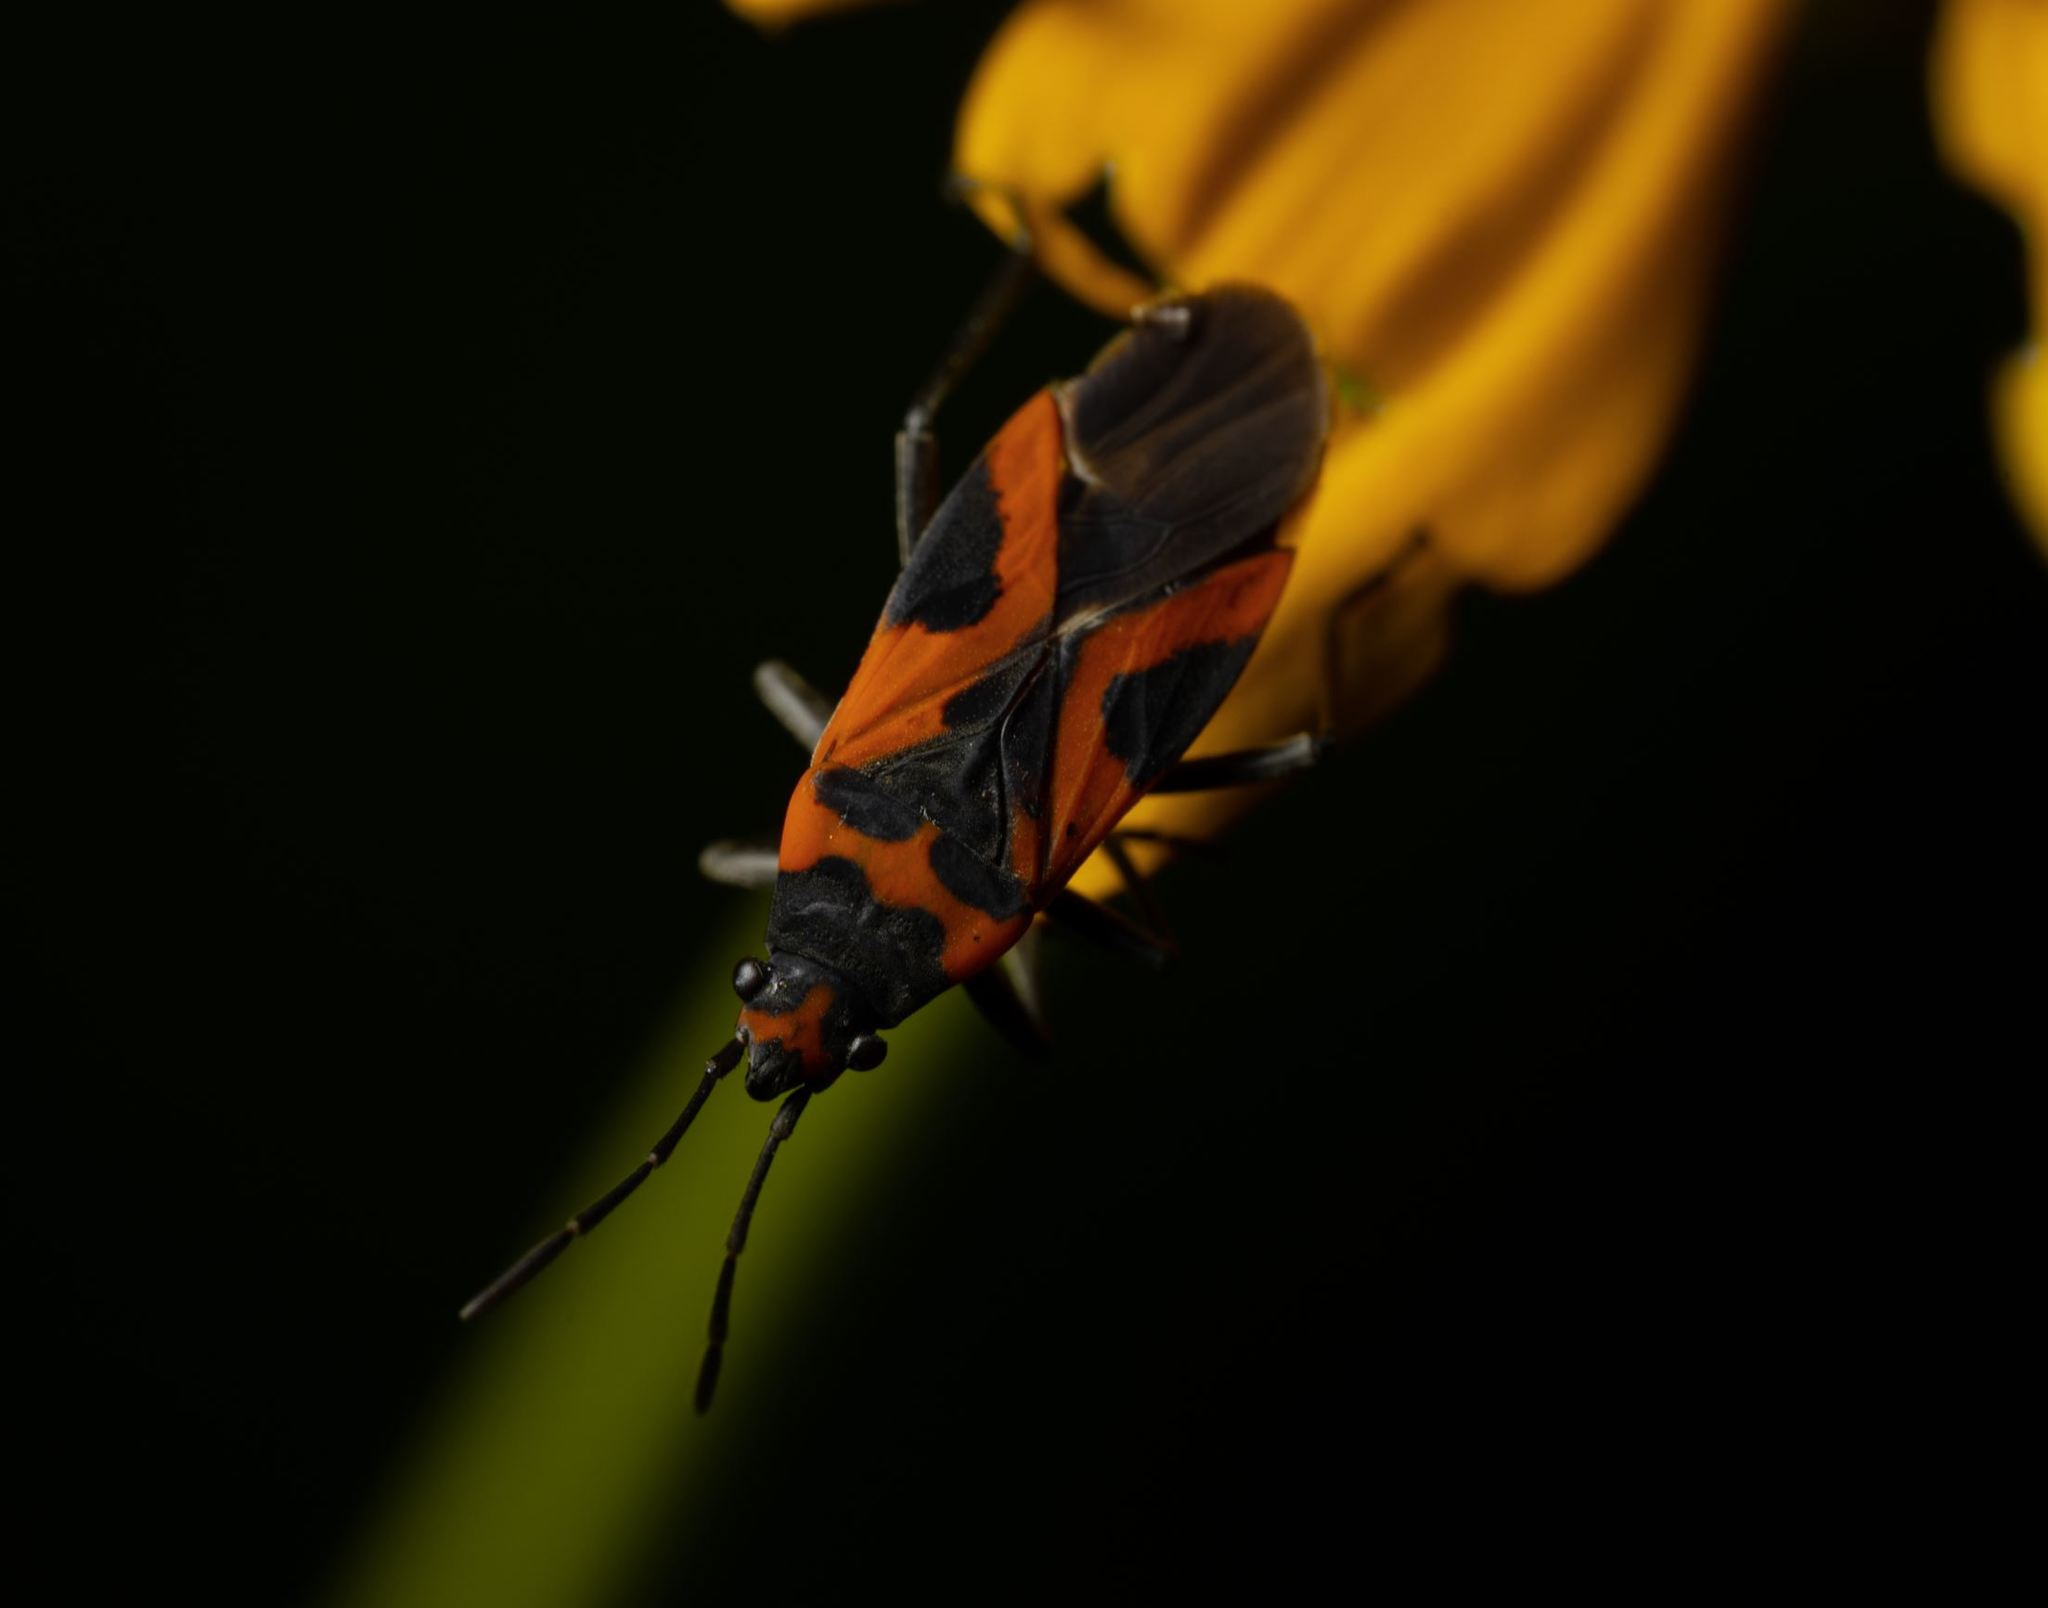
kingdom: Animalia
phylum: Arthropoda
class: Insecta
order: Hemiptera
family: Lygaeidae
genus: Lygaeus
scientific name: Lygaeus turcicus
